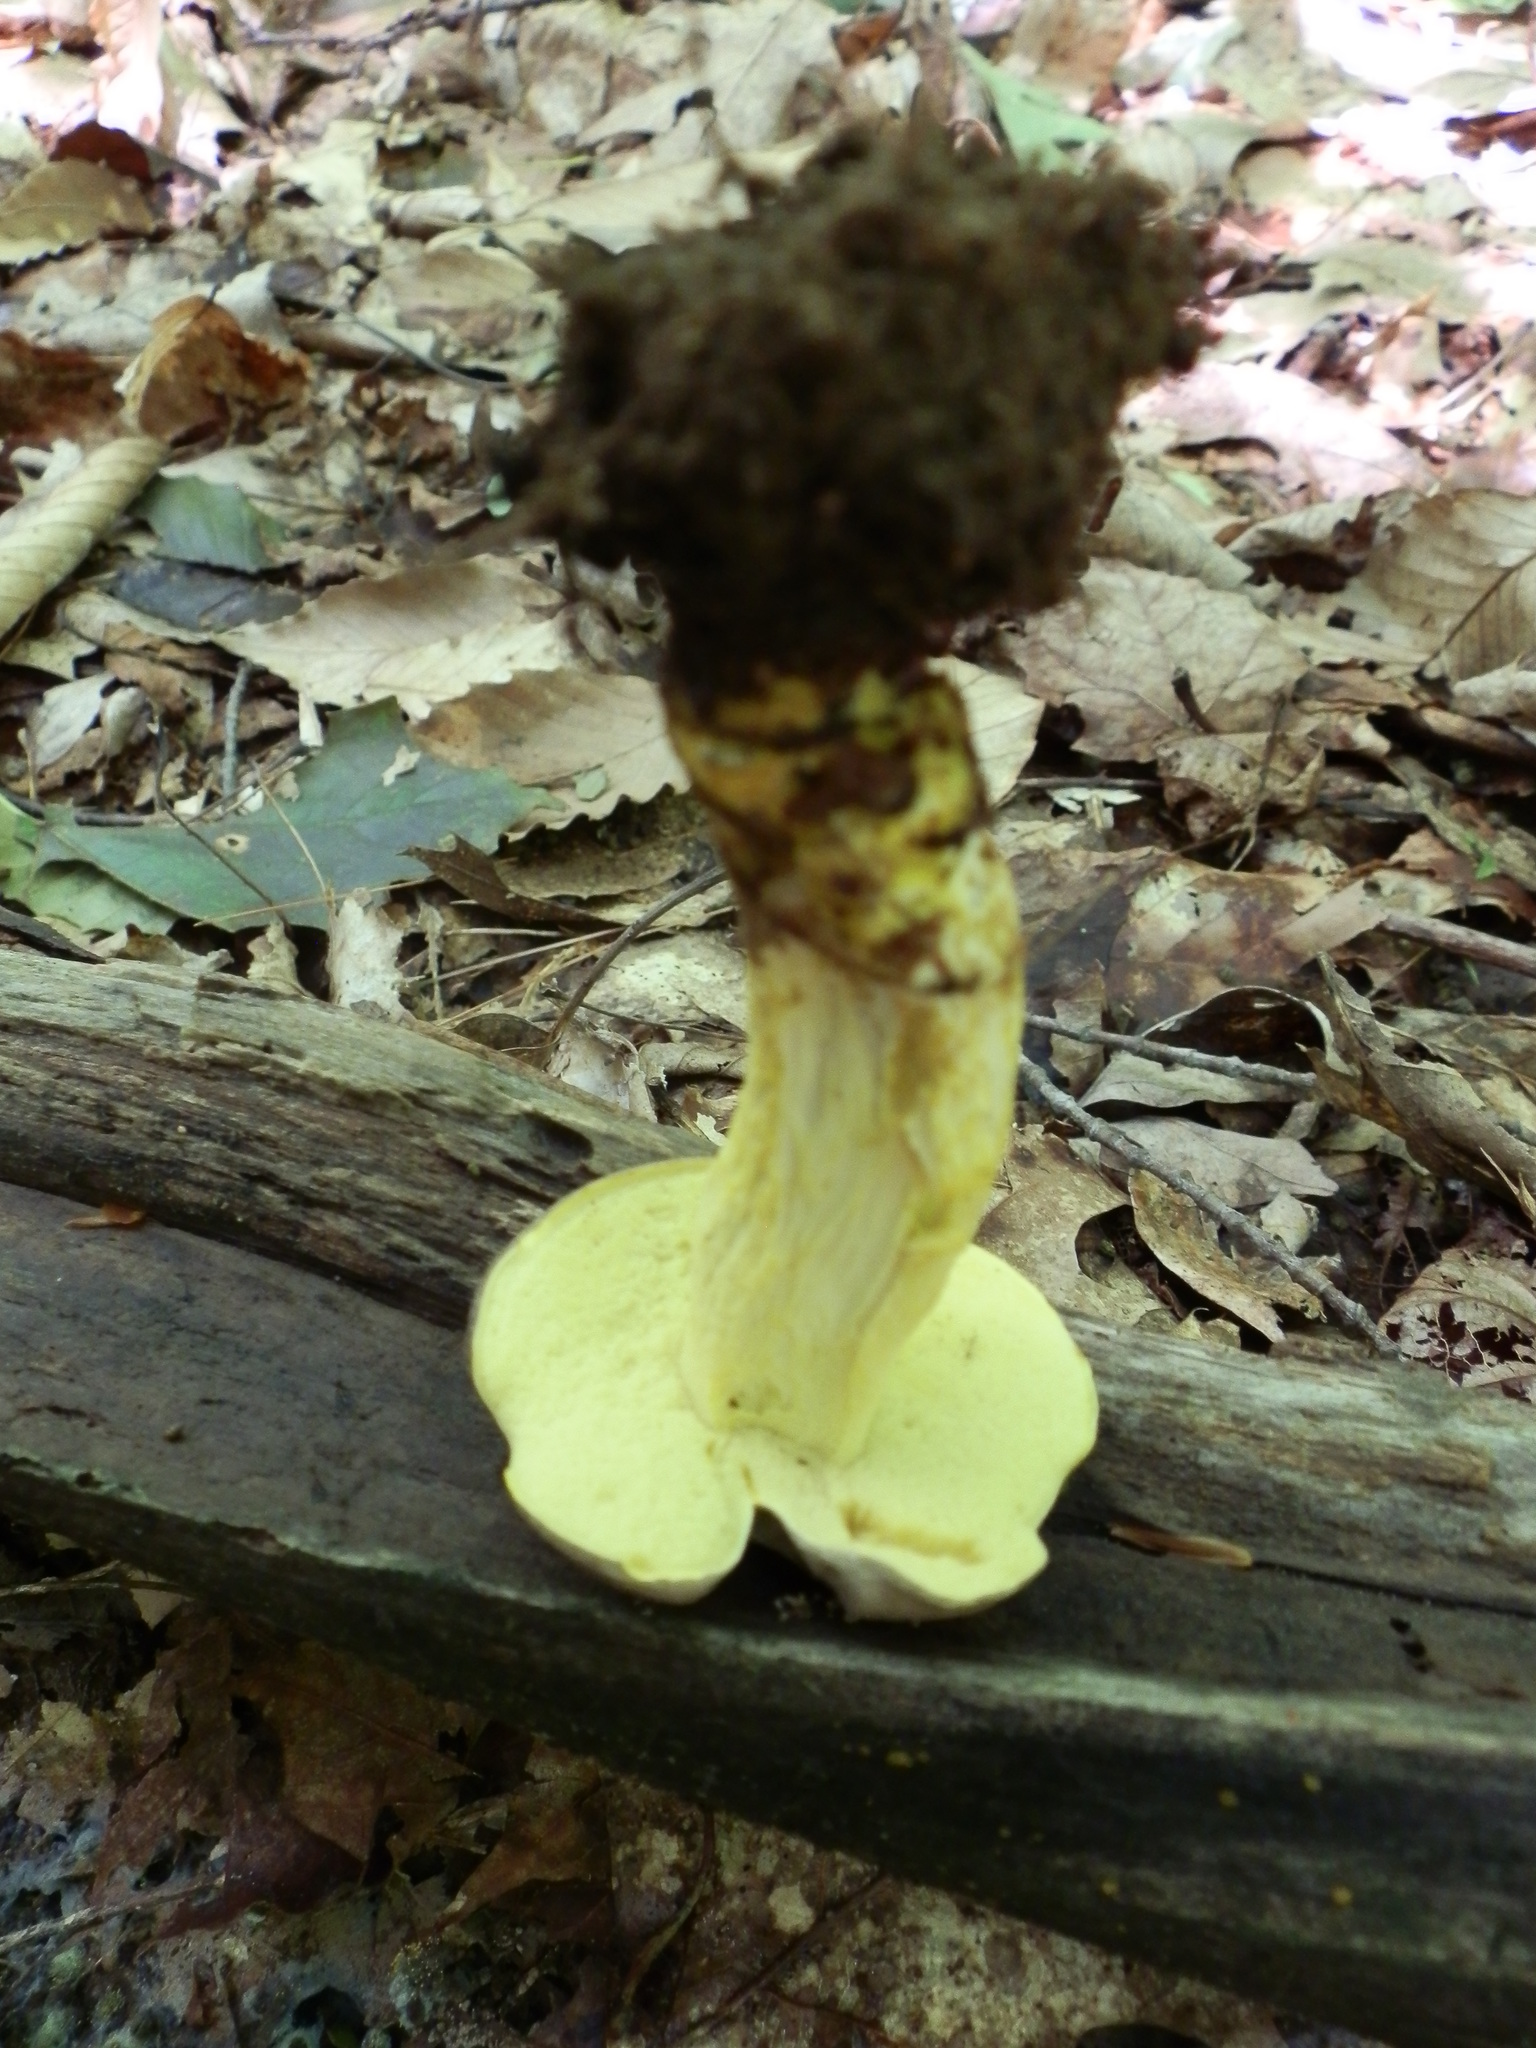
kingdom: Fungi
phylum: Basidiomycota
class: Agaricomycetes
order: Boletales
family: Boletaceae
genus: Retiboletus
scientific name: Retiboletus ornatipes
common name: Ornate-stalked bolete
